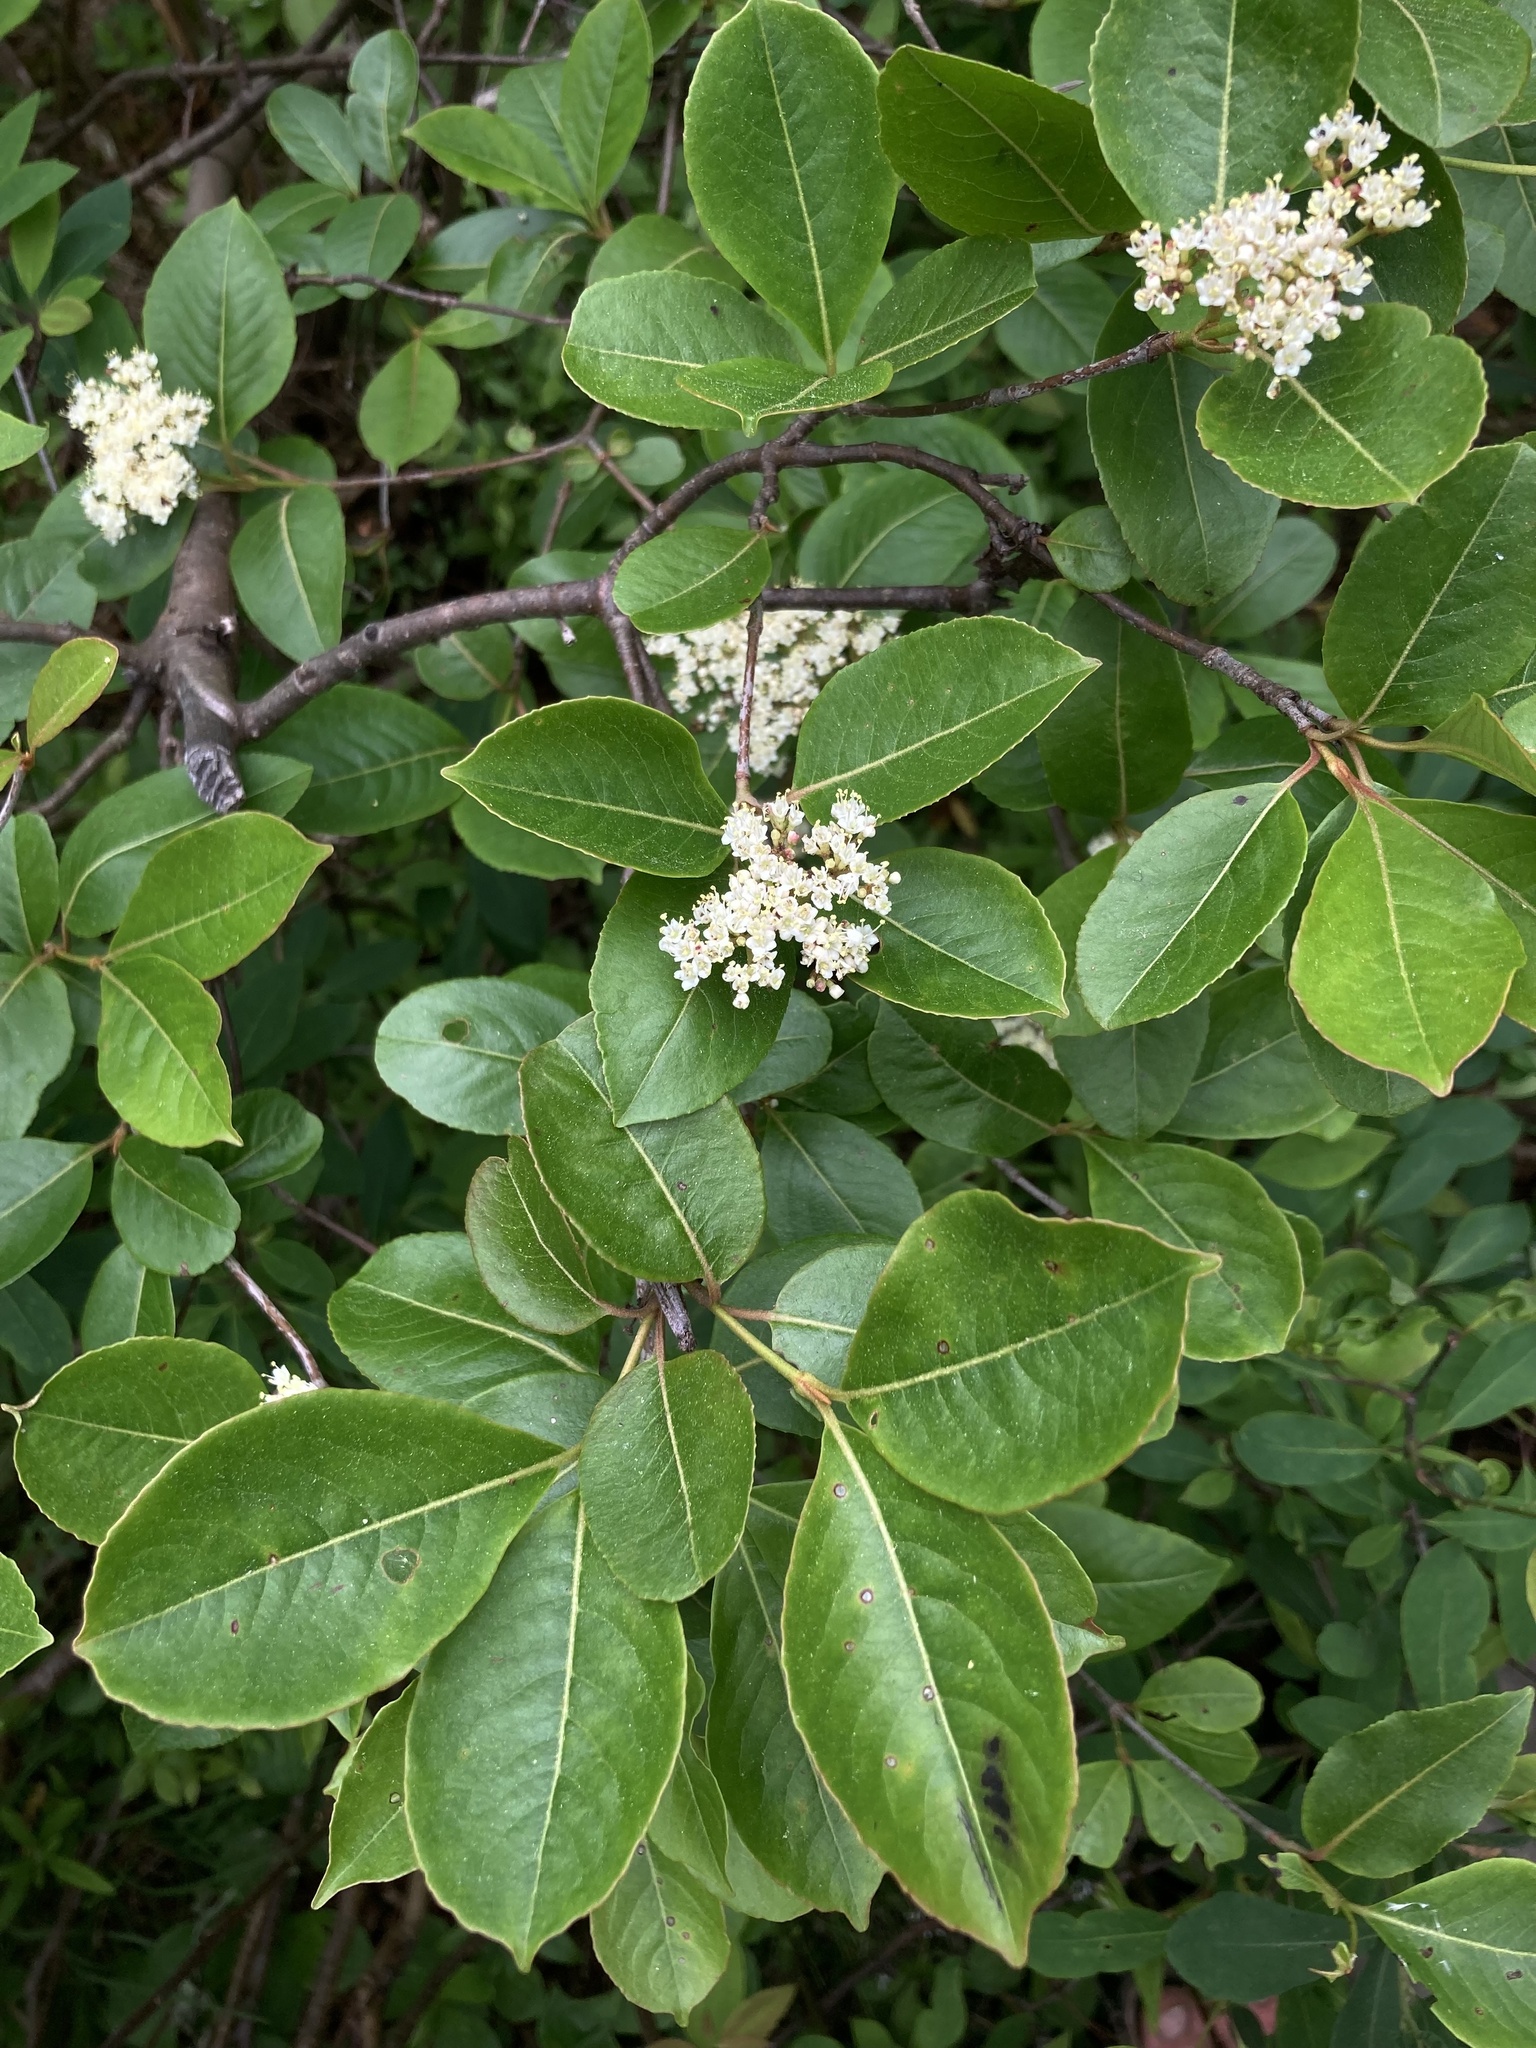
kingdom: Plantae
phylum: Tracheophyta
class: Magnoliopsida
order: Dipsacales
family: Viburnaceae
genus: Viburnum
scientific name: Viburnum cassinoides
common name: Swamp haw
